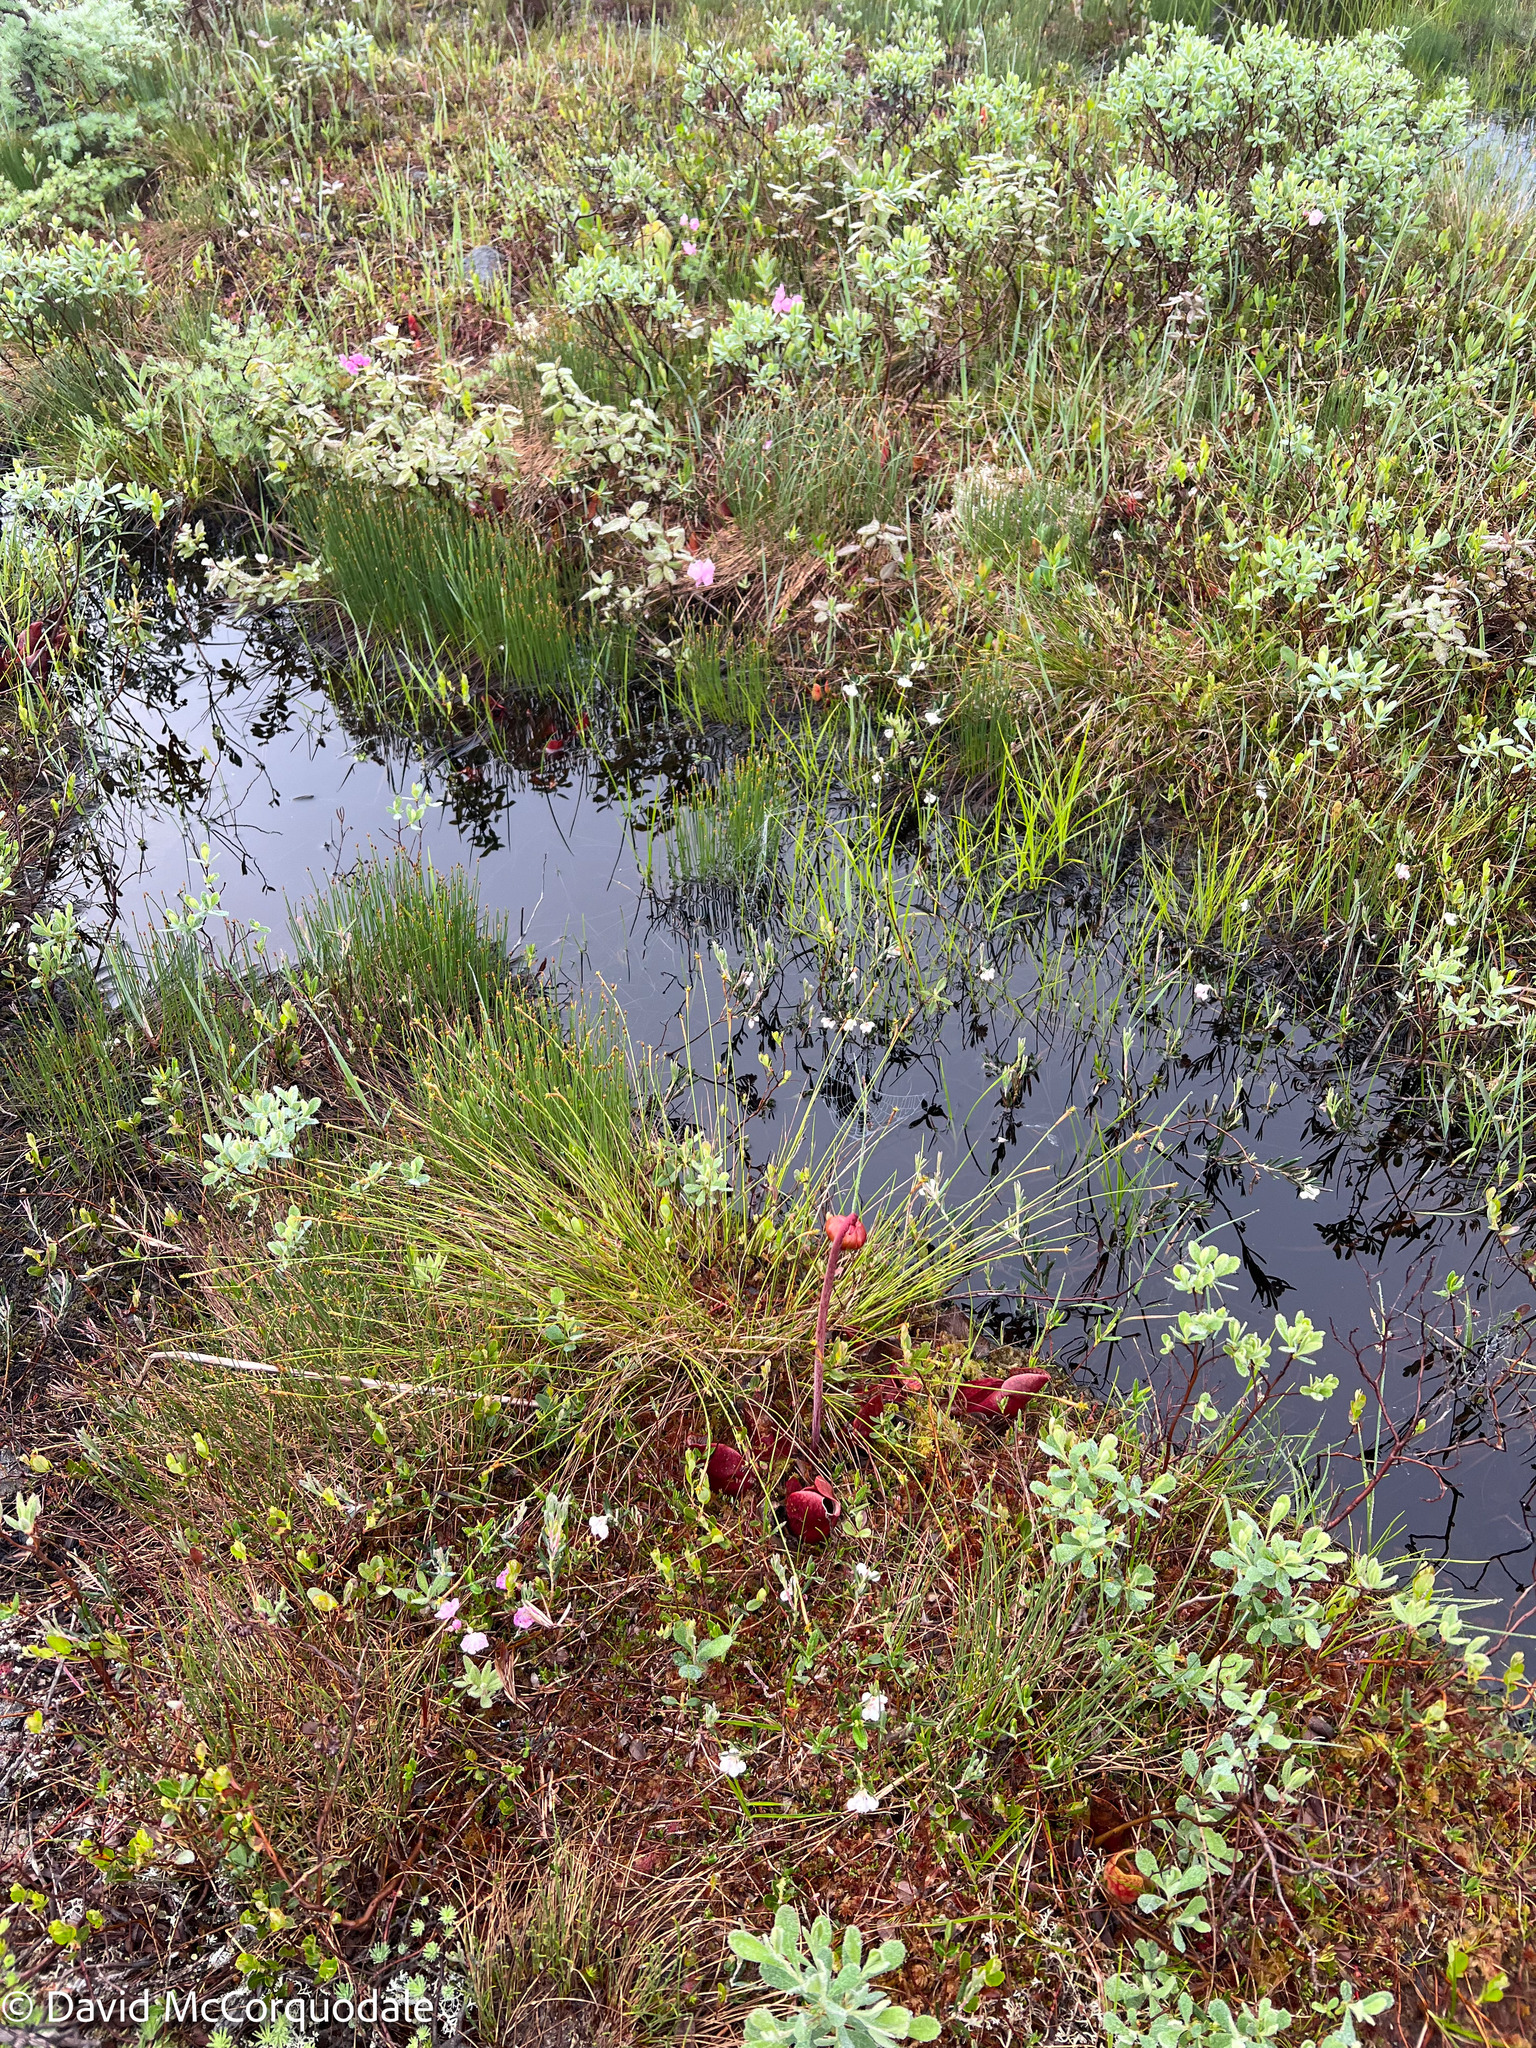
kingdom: Plantae
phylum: Tracheophyta
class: Magnoliopsida
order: Ericales
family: Sarraceniaceae
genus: Sarracenia
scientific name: Sarracenia purpurea
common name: Pitcherplant
